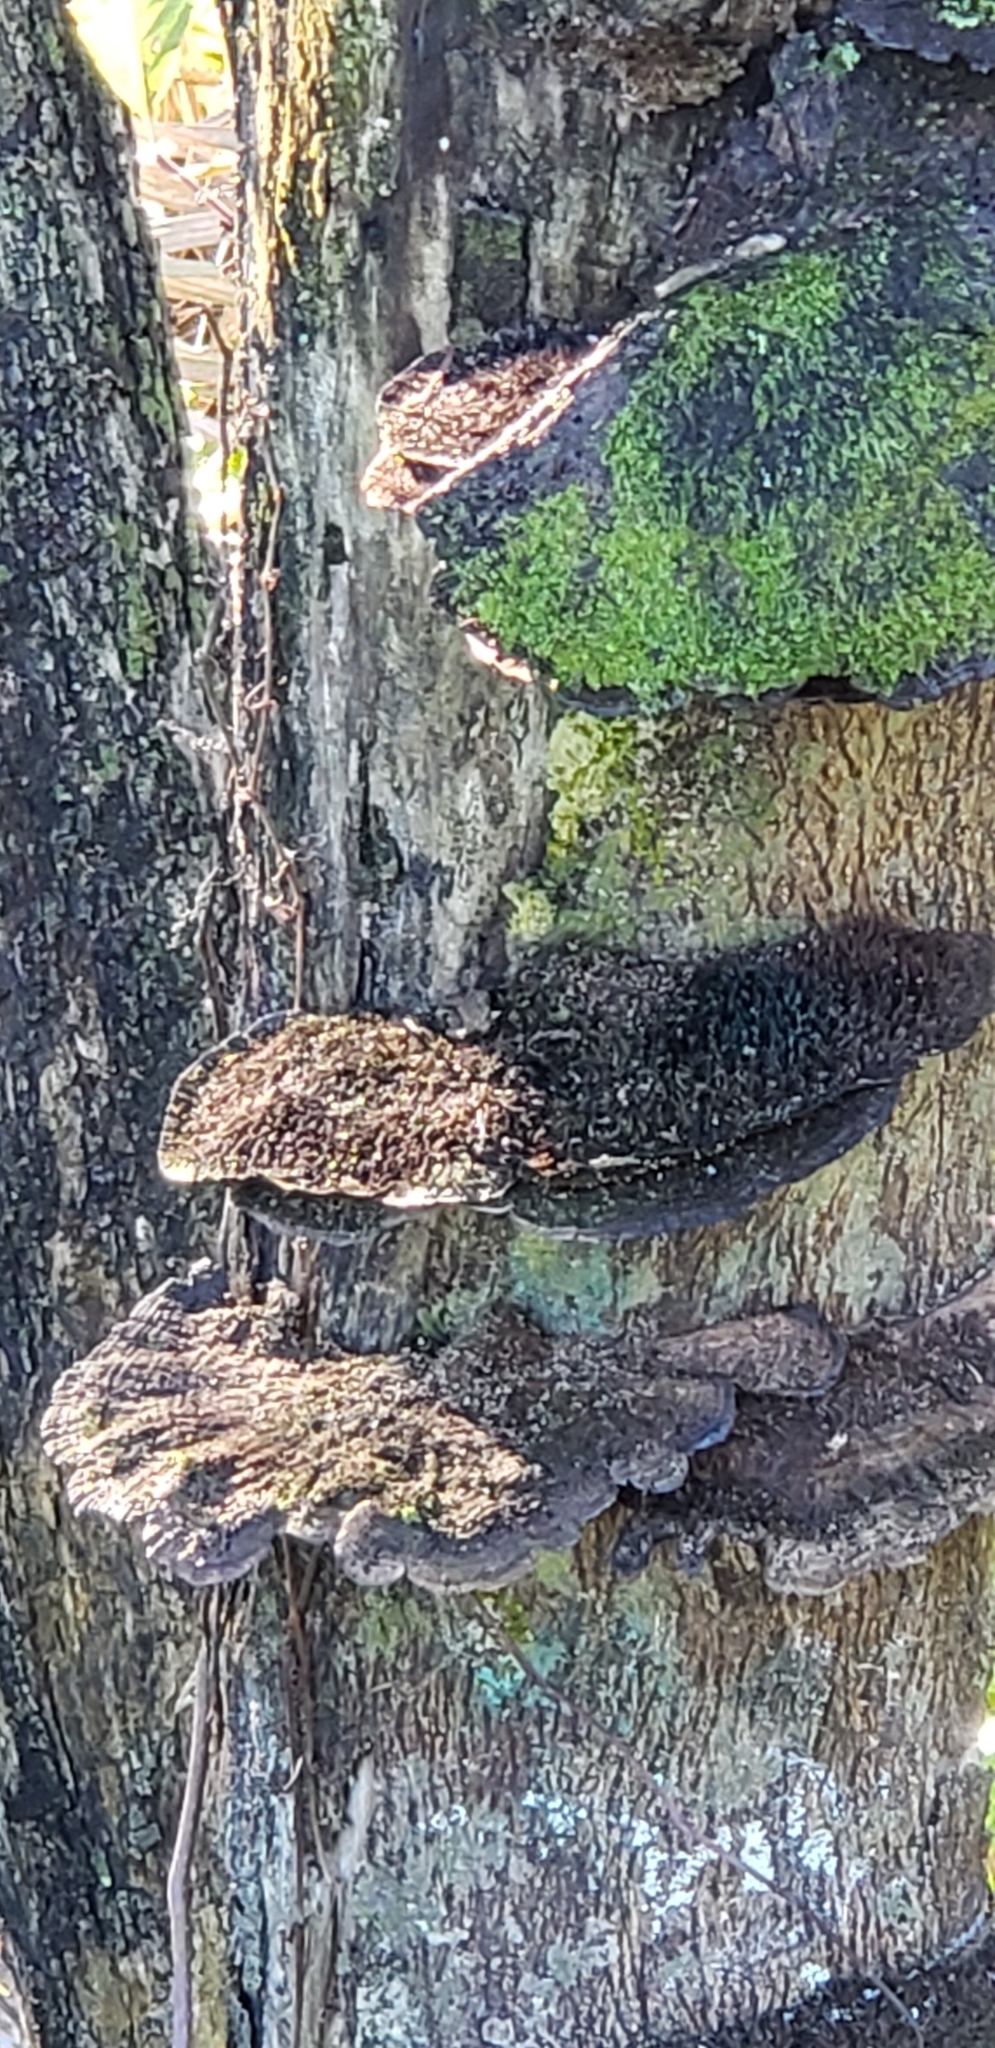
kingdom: Fungi
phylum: Basidiomycota
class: Agaricomycetes
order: Polyporales
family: Cerrenaceae
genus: Cerrena
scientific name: Cerrena hydnoides
